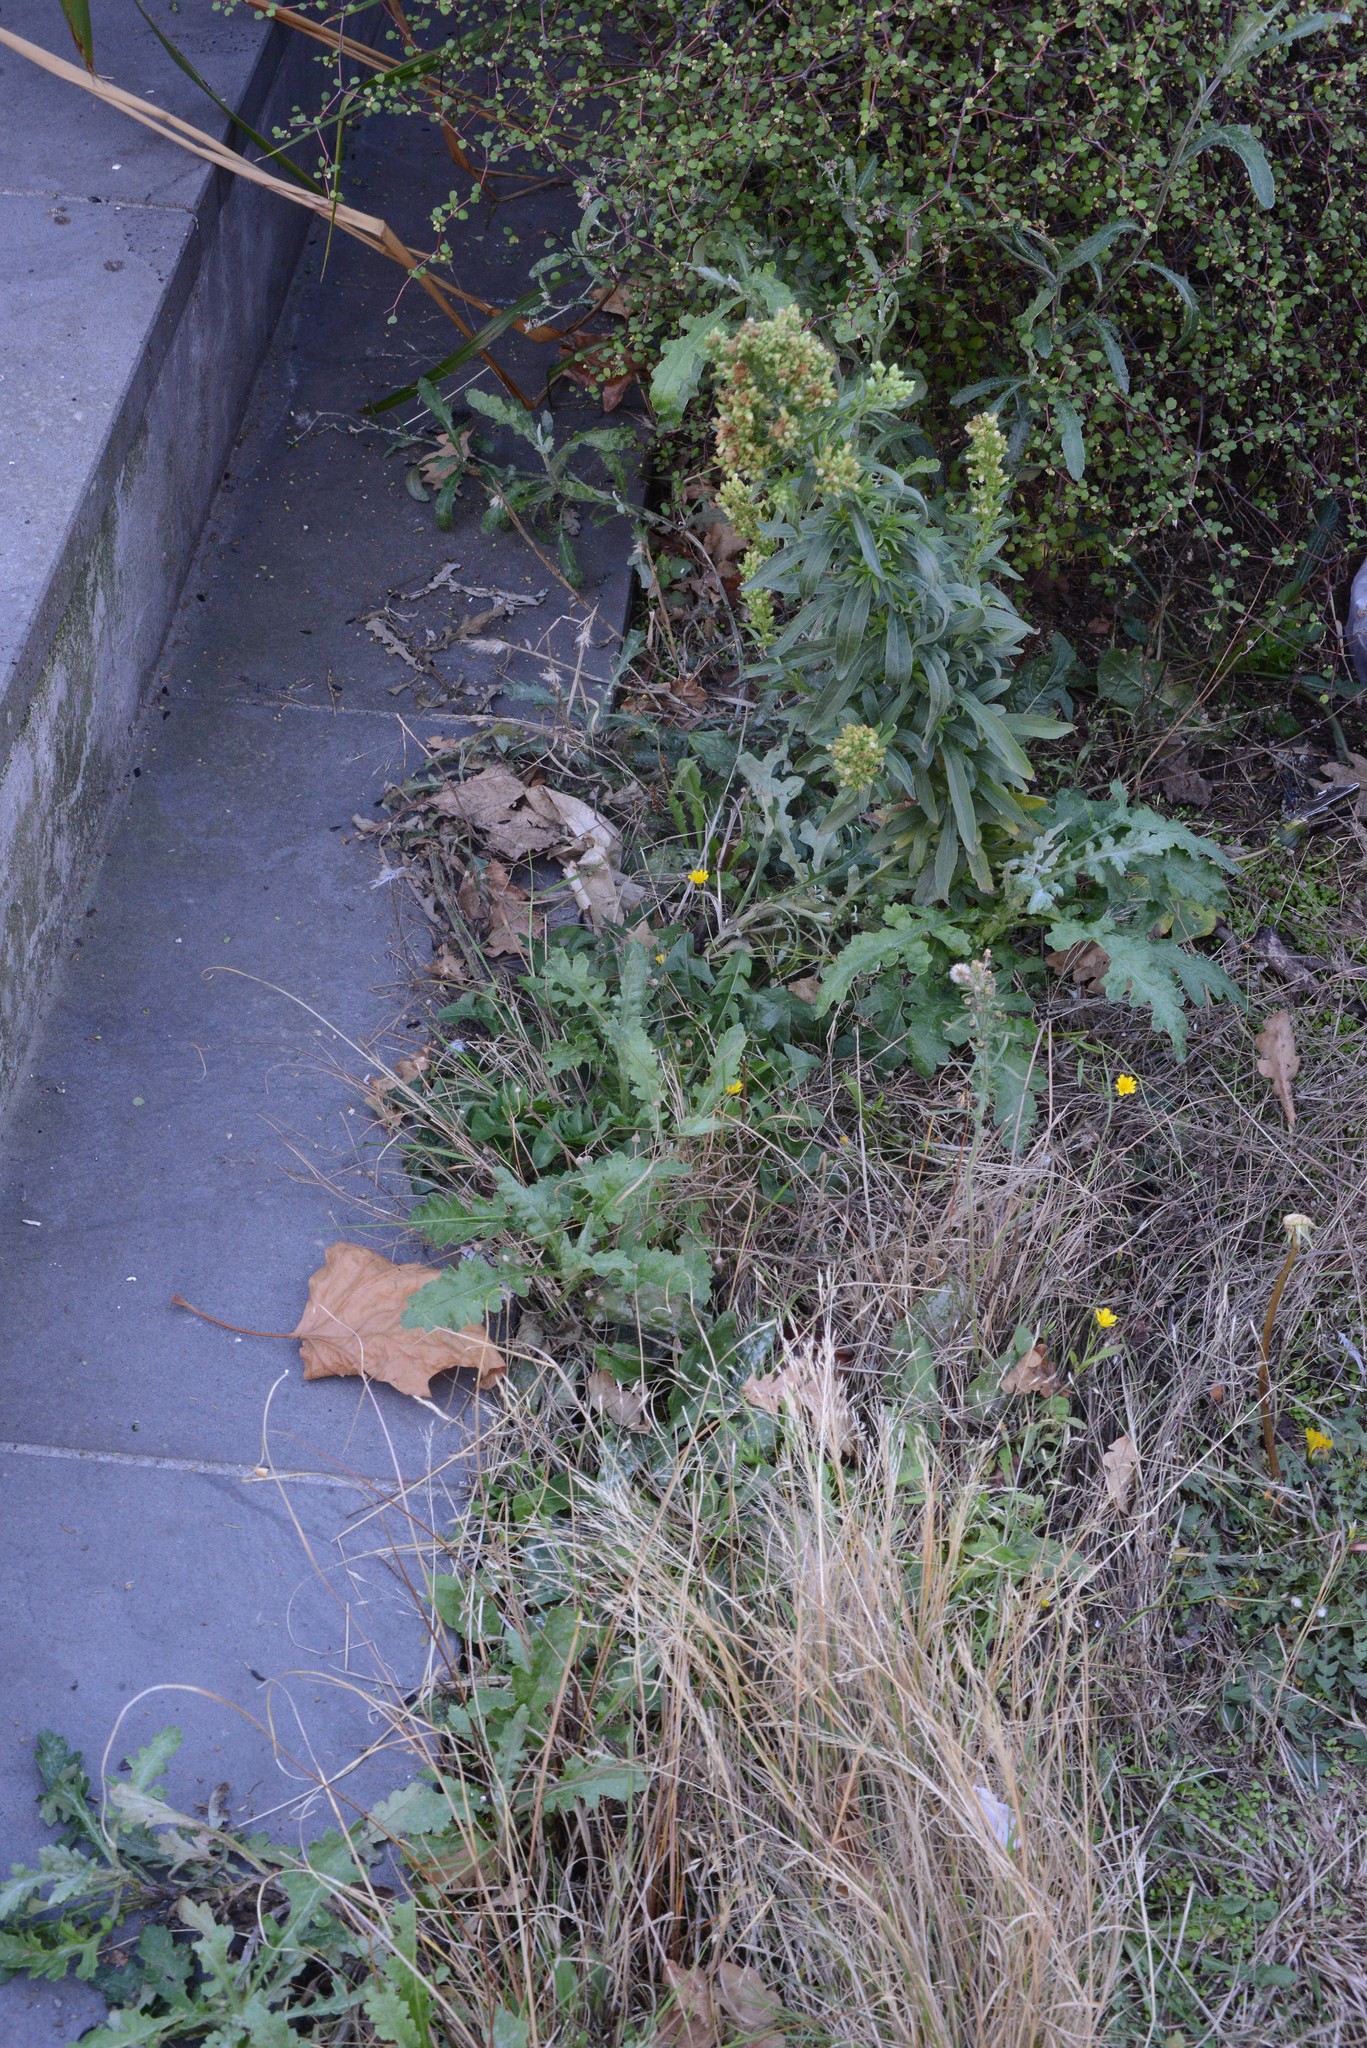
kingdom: Plantae
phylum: Tracheophyta
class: Magnoliopsida
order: Asterales
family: Asteraceae
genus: Senecio
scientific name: Senecio glomeratus
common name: Cutleaf burnweed
